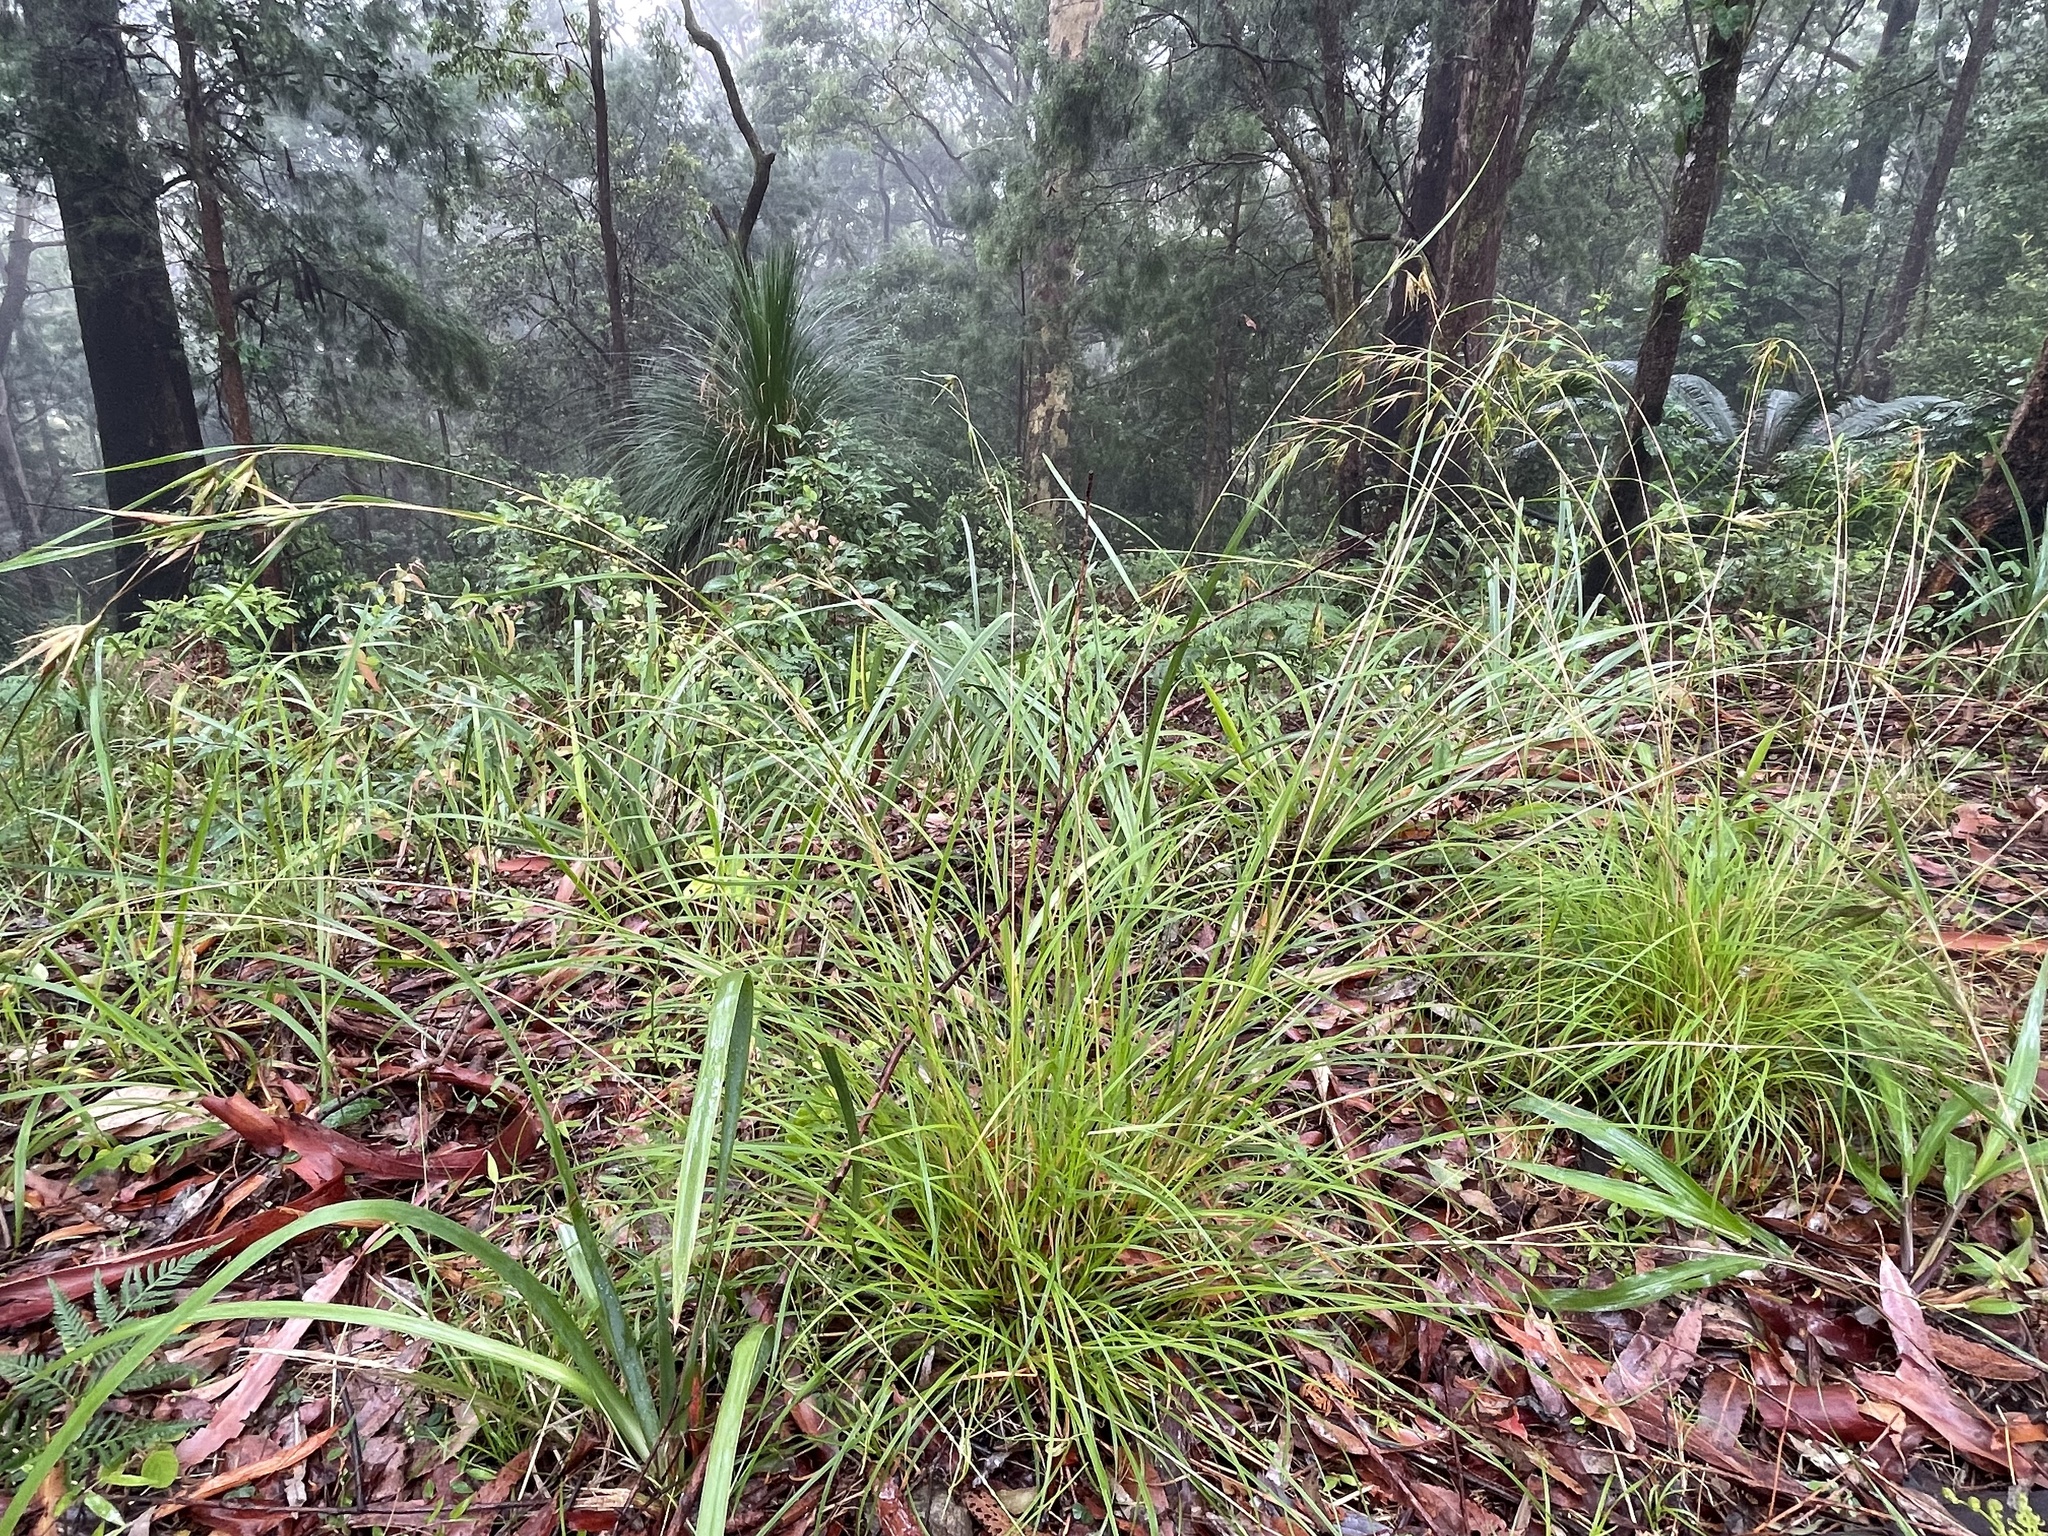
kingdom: Plantae
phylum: Tracheophyta
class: Liliopsida
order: Poales
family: Poaceae
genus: Themeda
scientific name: Themeda triandra
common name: Kangaroo grass
